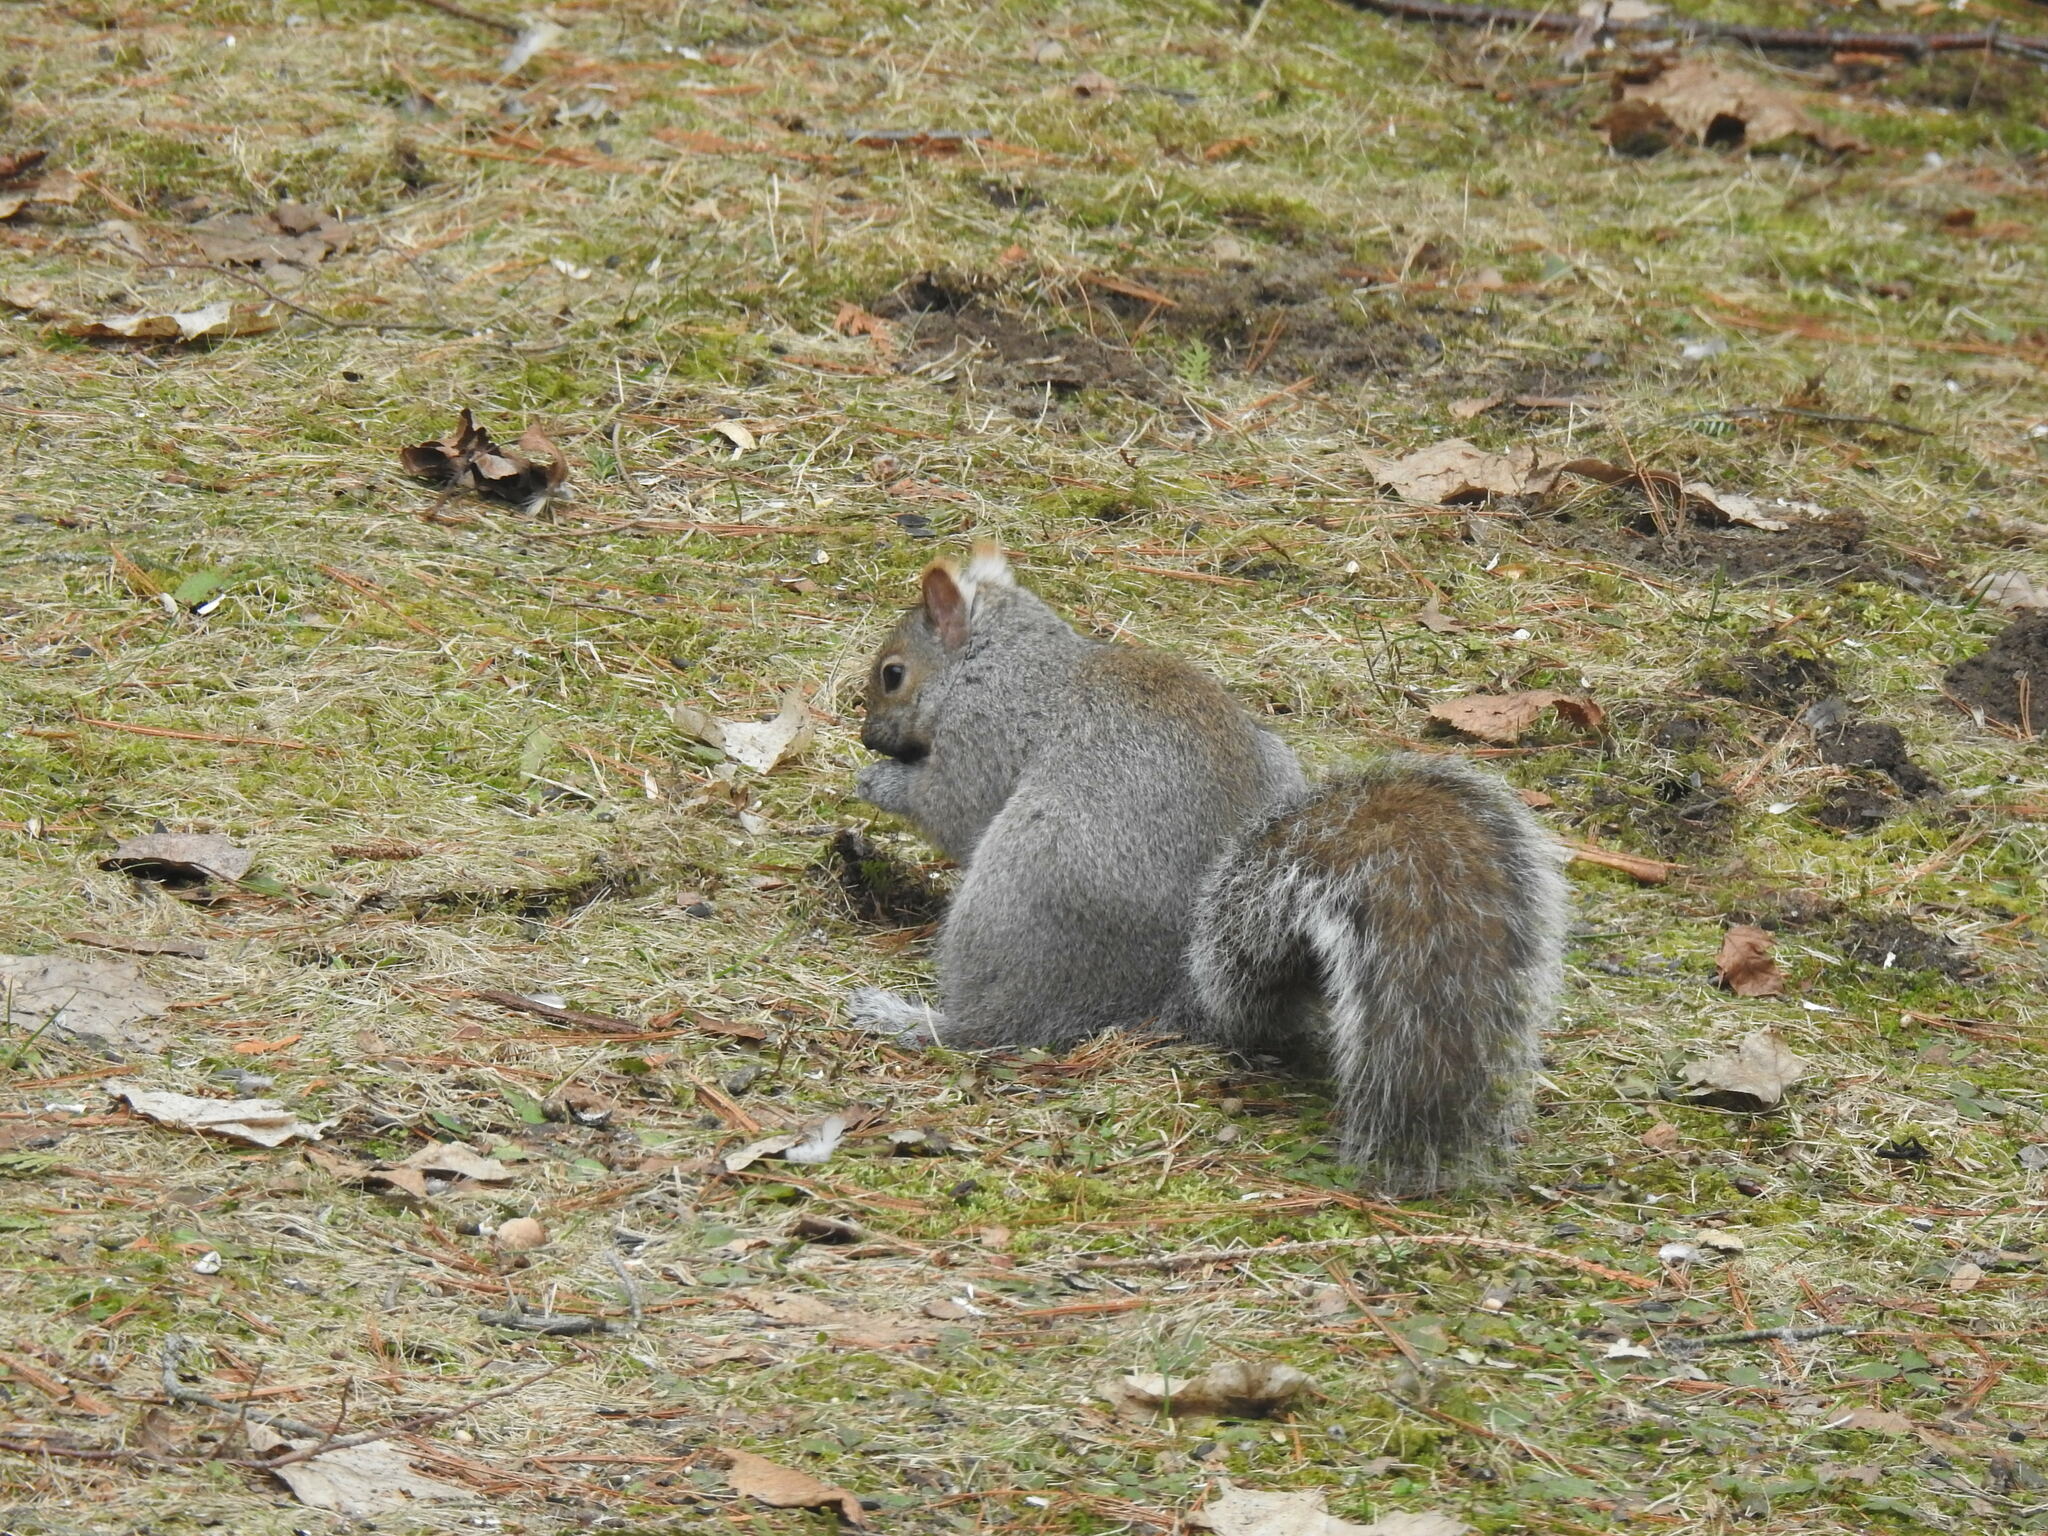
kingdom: Animalia
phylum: Chordata
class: Mammalia
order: Rodentia
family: Sciuridae
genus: Sciurus
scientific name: Sciurus carolinensis
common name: Eastern gray squirrel
